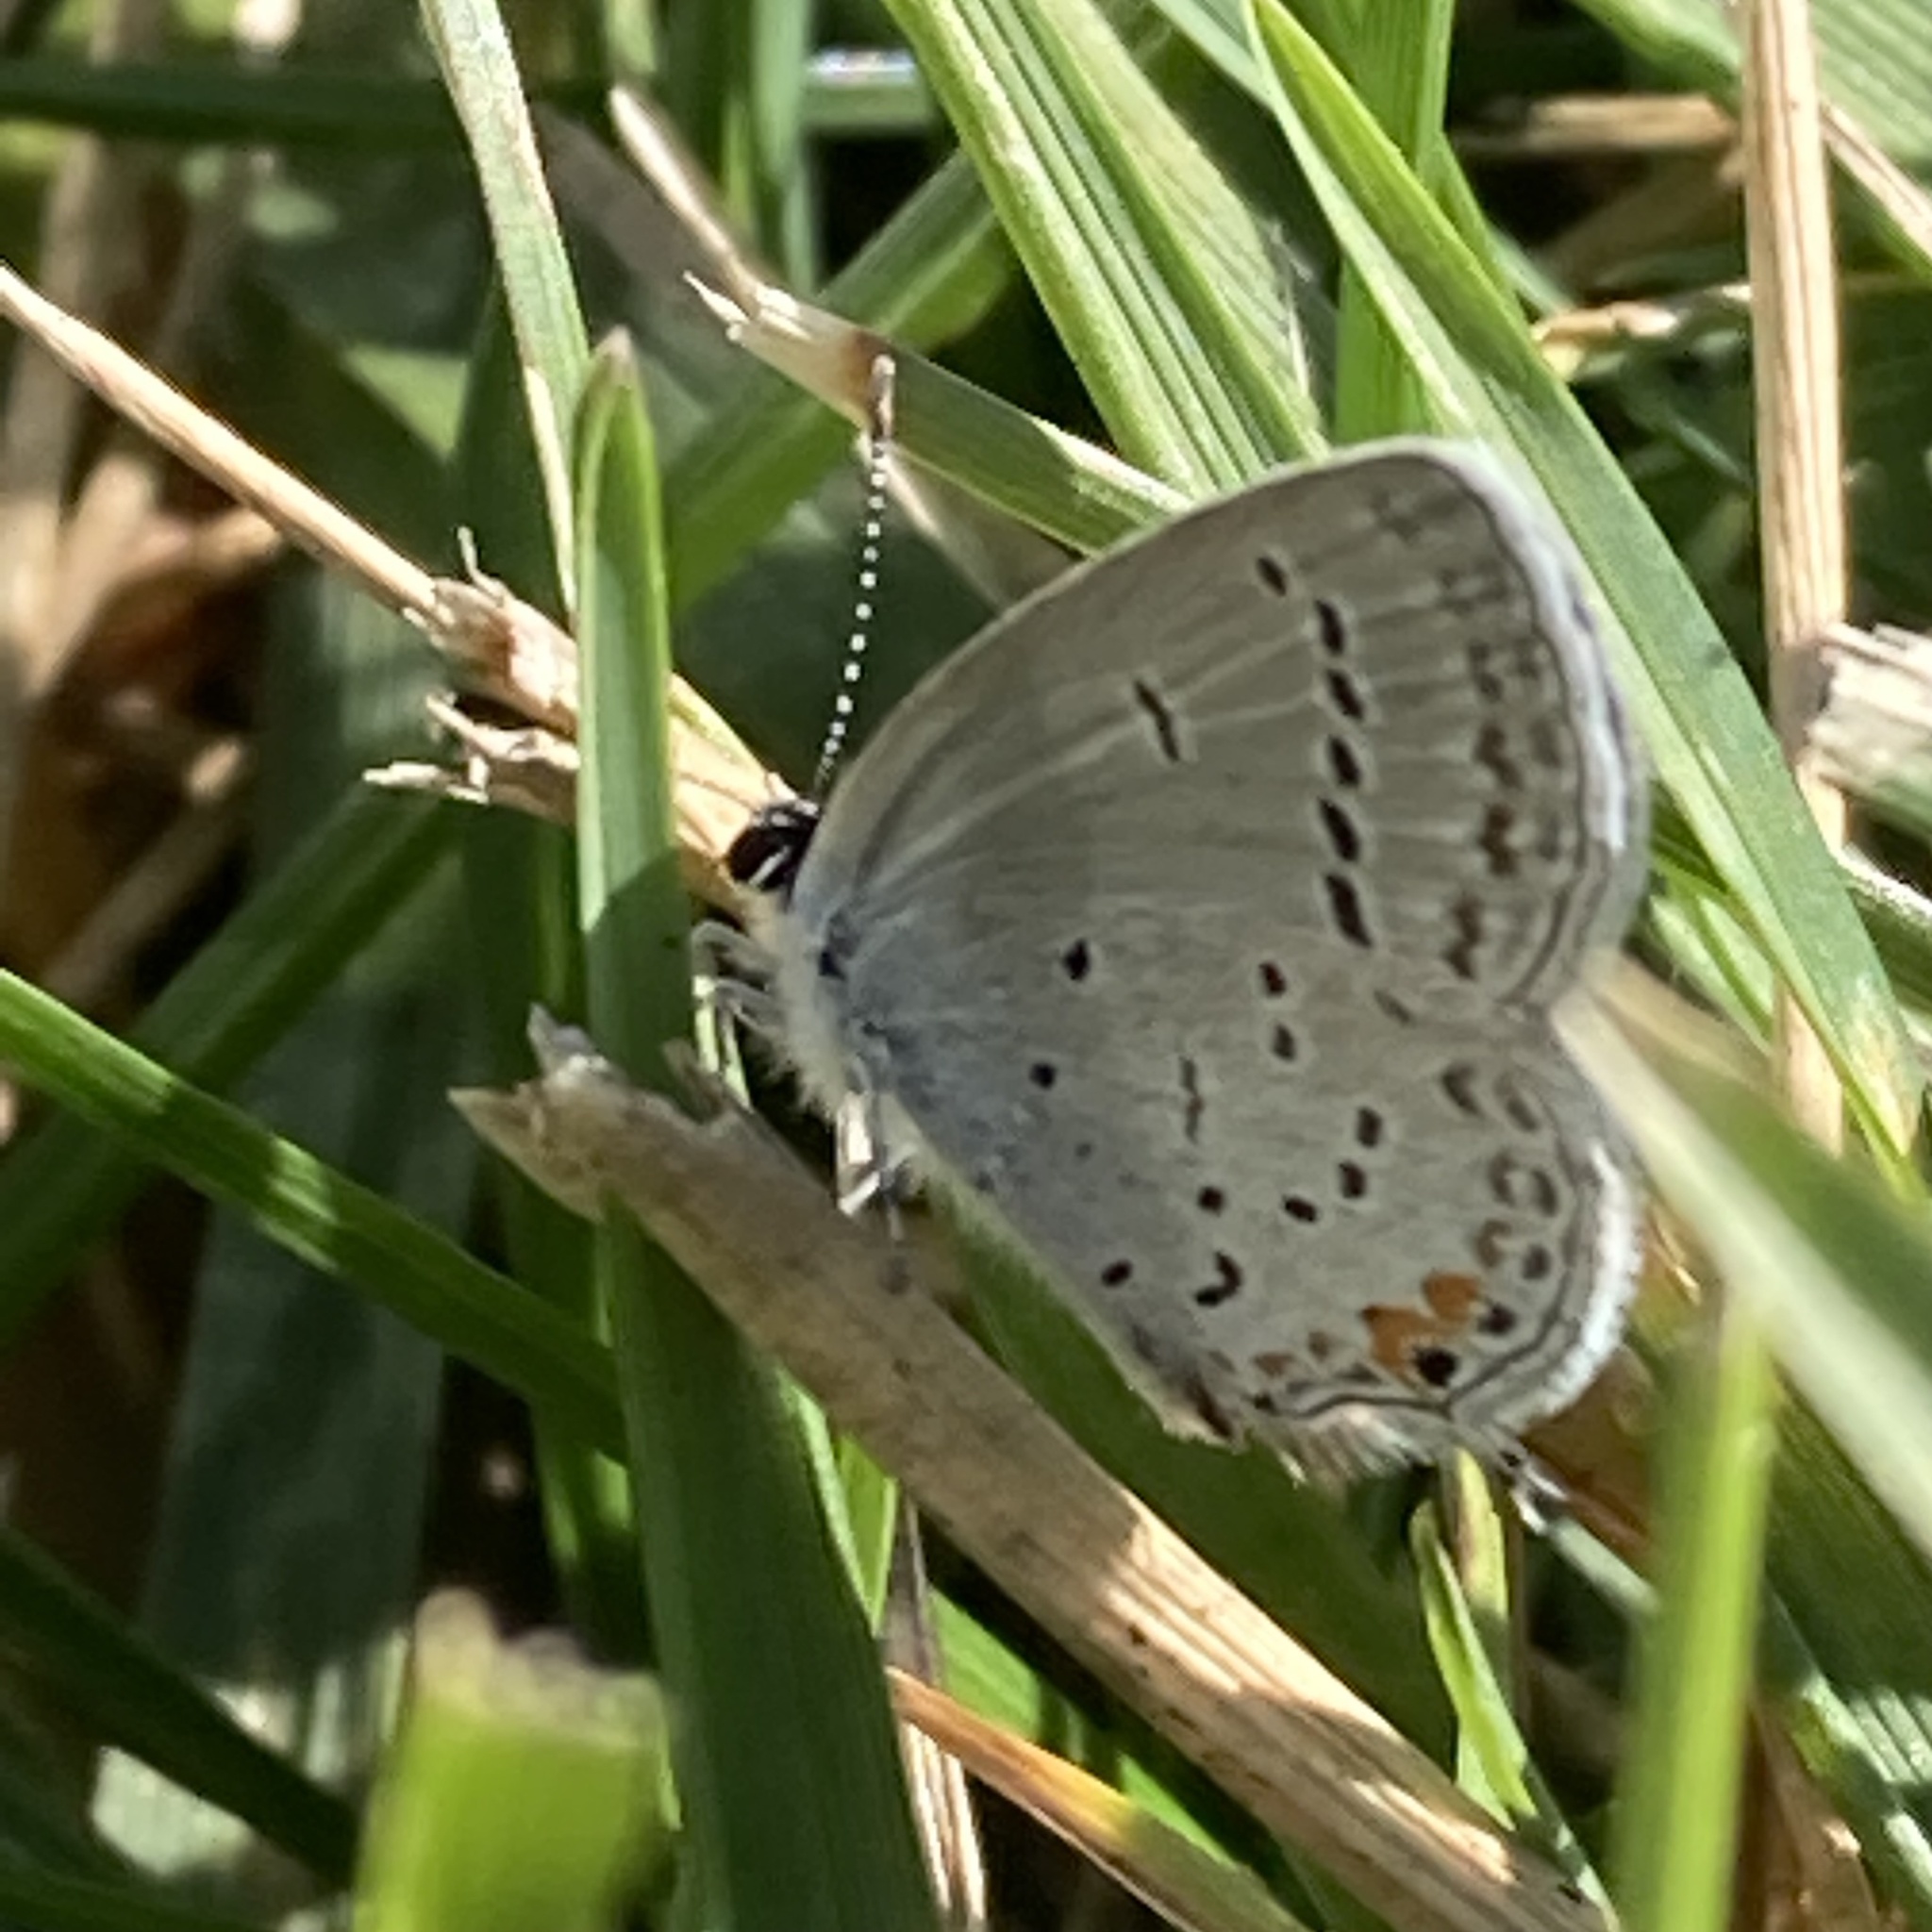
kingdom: Animalia
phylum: Arthropoda
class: Insecta
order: Lepidoptera
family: Lycaenidae
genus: Elkalyce
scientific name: Elkalyce comyntas
